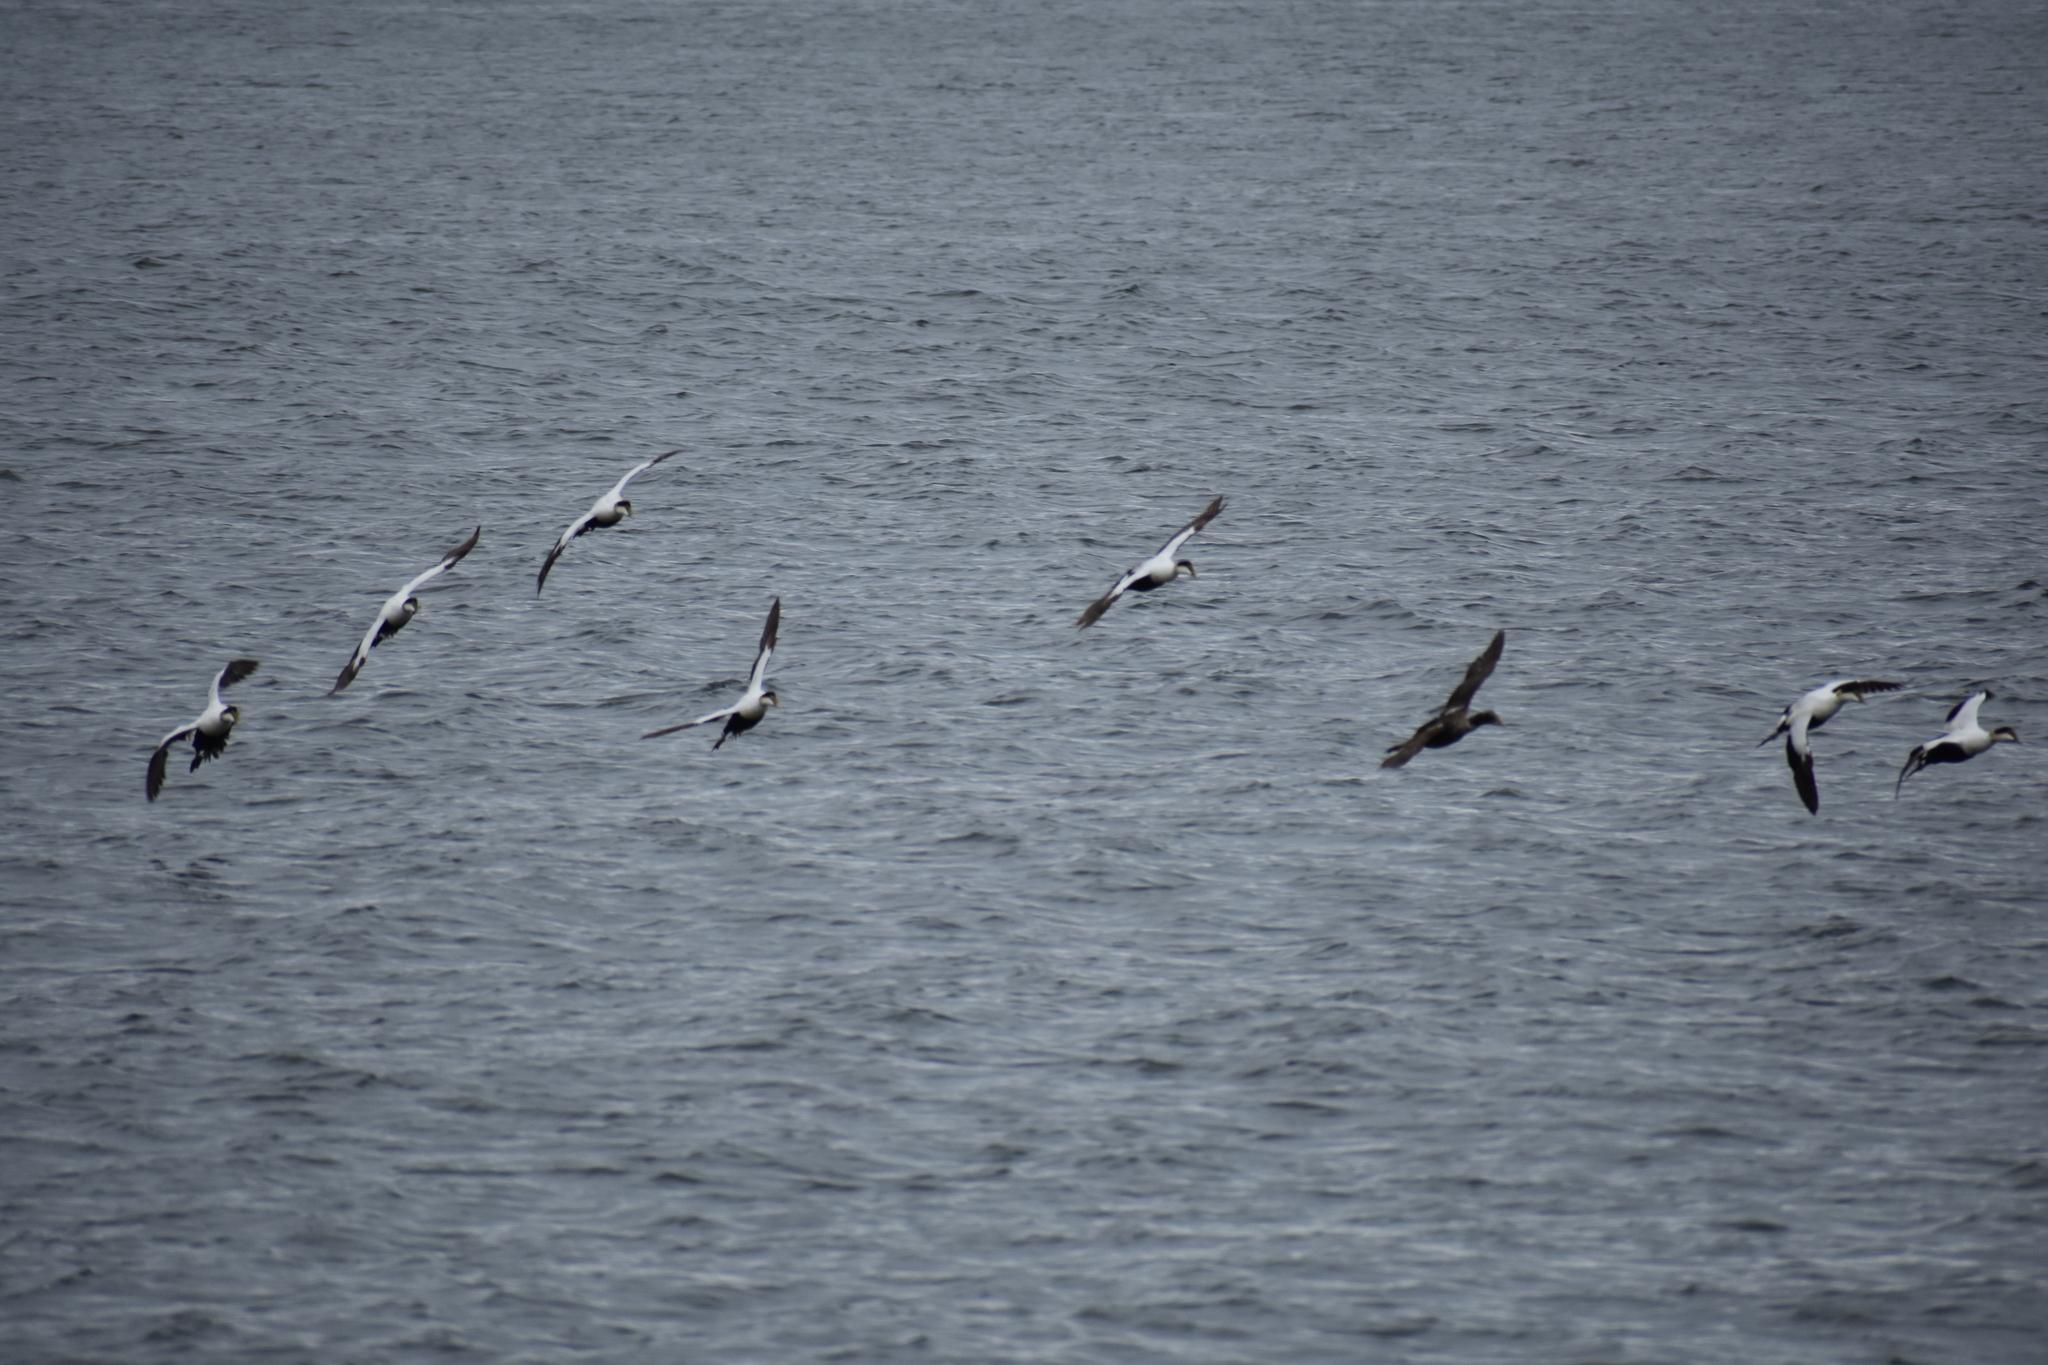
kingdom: Animalia
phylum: Chordata
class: Aves
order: Anseriformes
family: Anatidae
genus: Somateria
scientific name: Somateria mollissima
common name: Common eider
